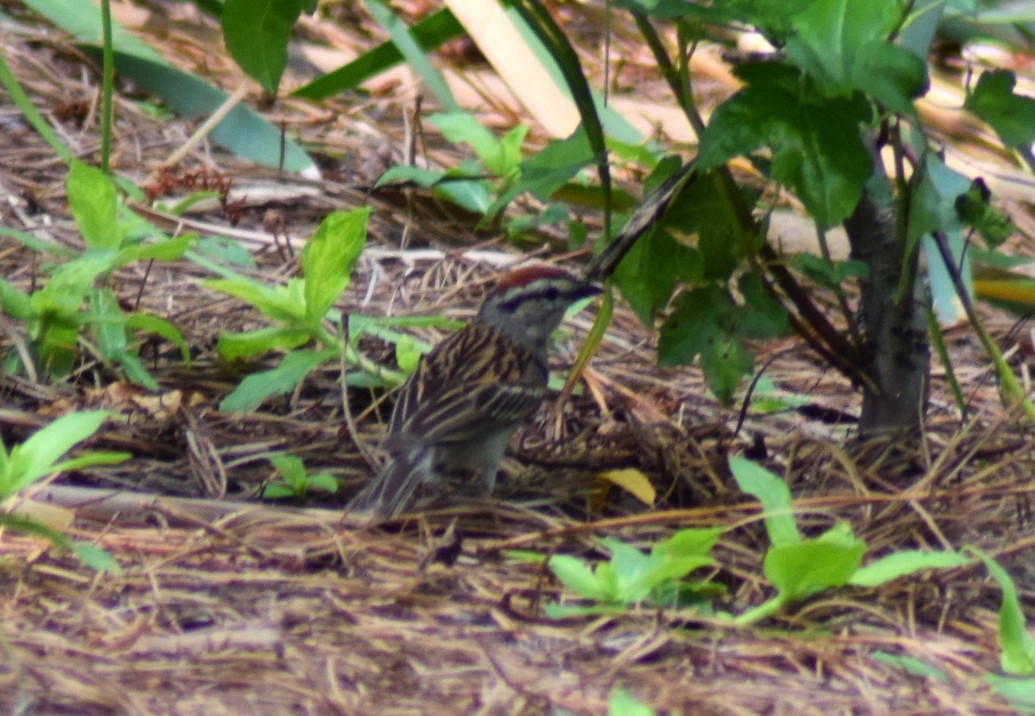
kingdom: Animalia
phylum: Chordata
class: Aves
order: Passeriformes
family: Passerellidae
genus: Spizella
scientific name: Spizella passerina
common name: Chipping sparrow
